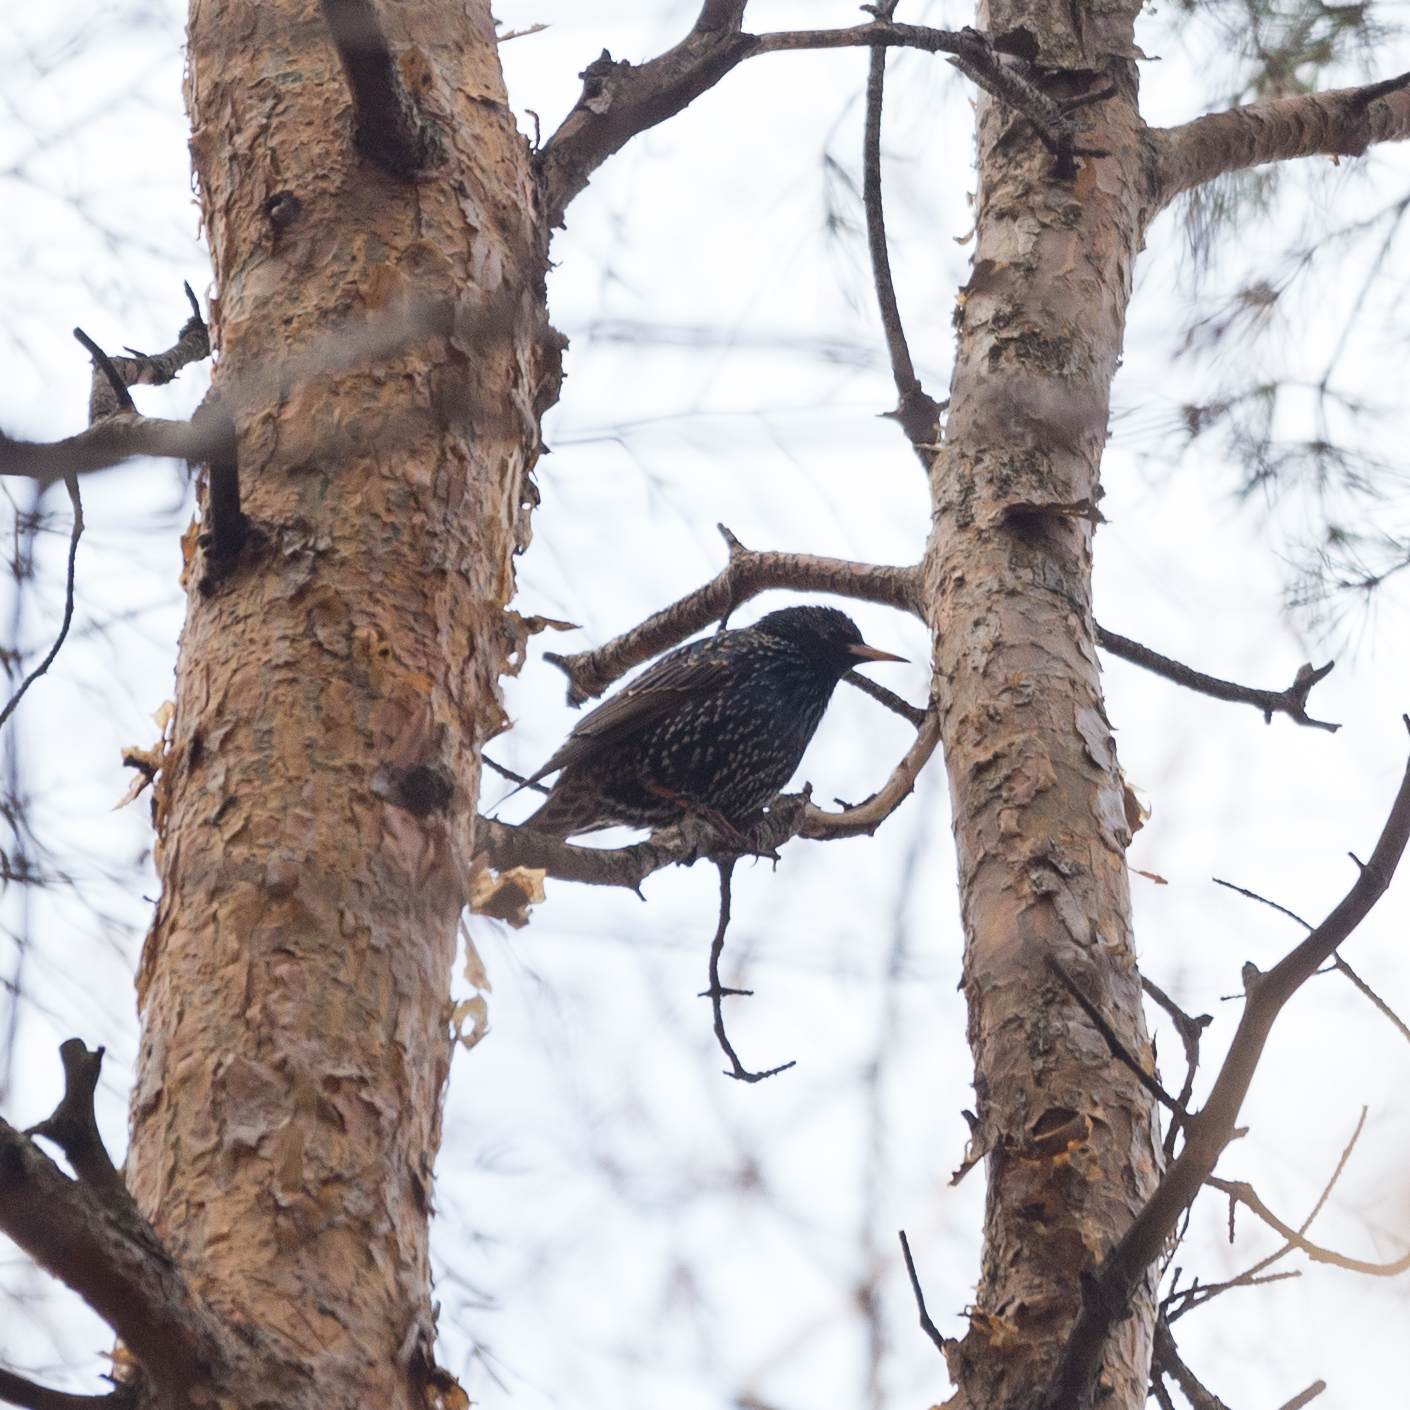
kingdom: Animalia
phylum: Chordata
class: Aves
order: Passeriformes
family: Sturnidae
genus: Sturnus
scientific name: Sturnus vulgaris
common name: Common starling
